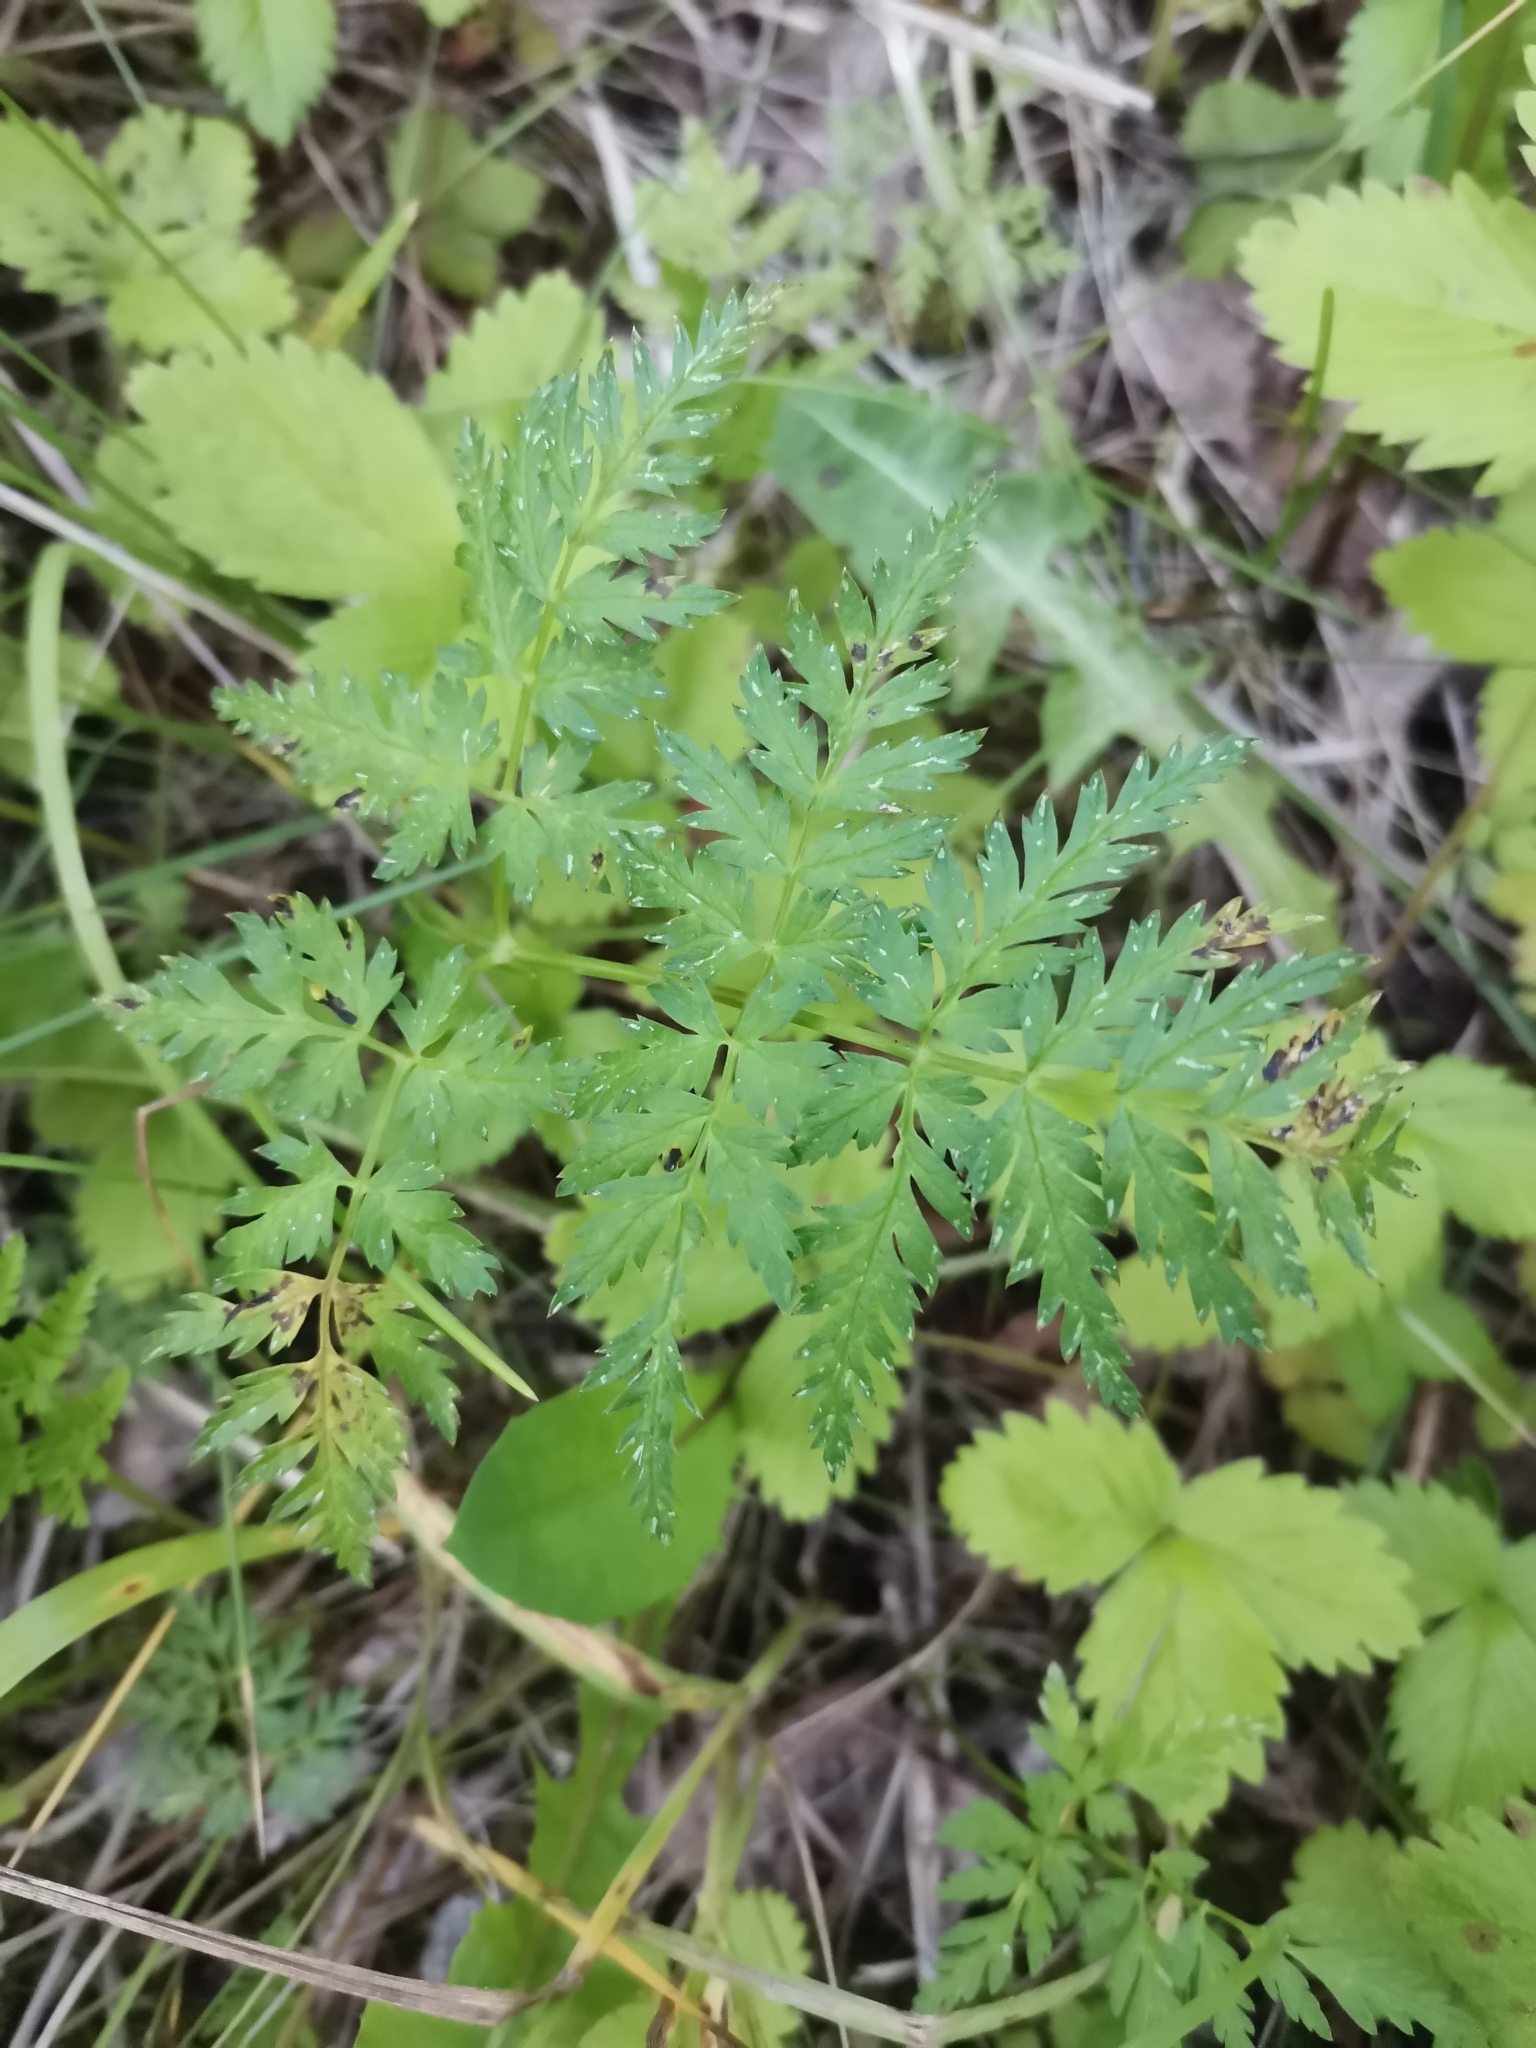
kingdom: Plantae
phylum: Tracheophyta
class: Magnoliopsida
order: Apiales
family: Apiaceae
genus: Anthriscus
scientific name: Anthriscus sylvestris
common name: Cow parsley
